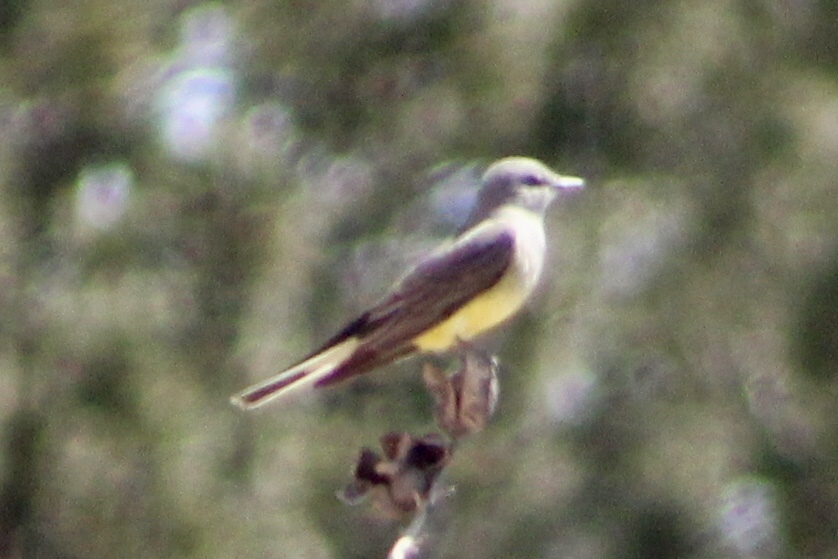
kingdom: Animalia
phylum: Chordata
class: Aves
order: Passeriformes
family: Tyrannidae
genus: Tyrannus
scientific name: Tyrannus verticalis
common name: Western kingbird
